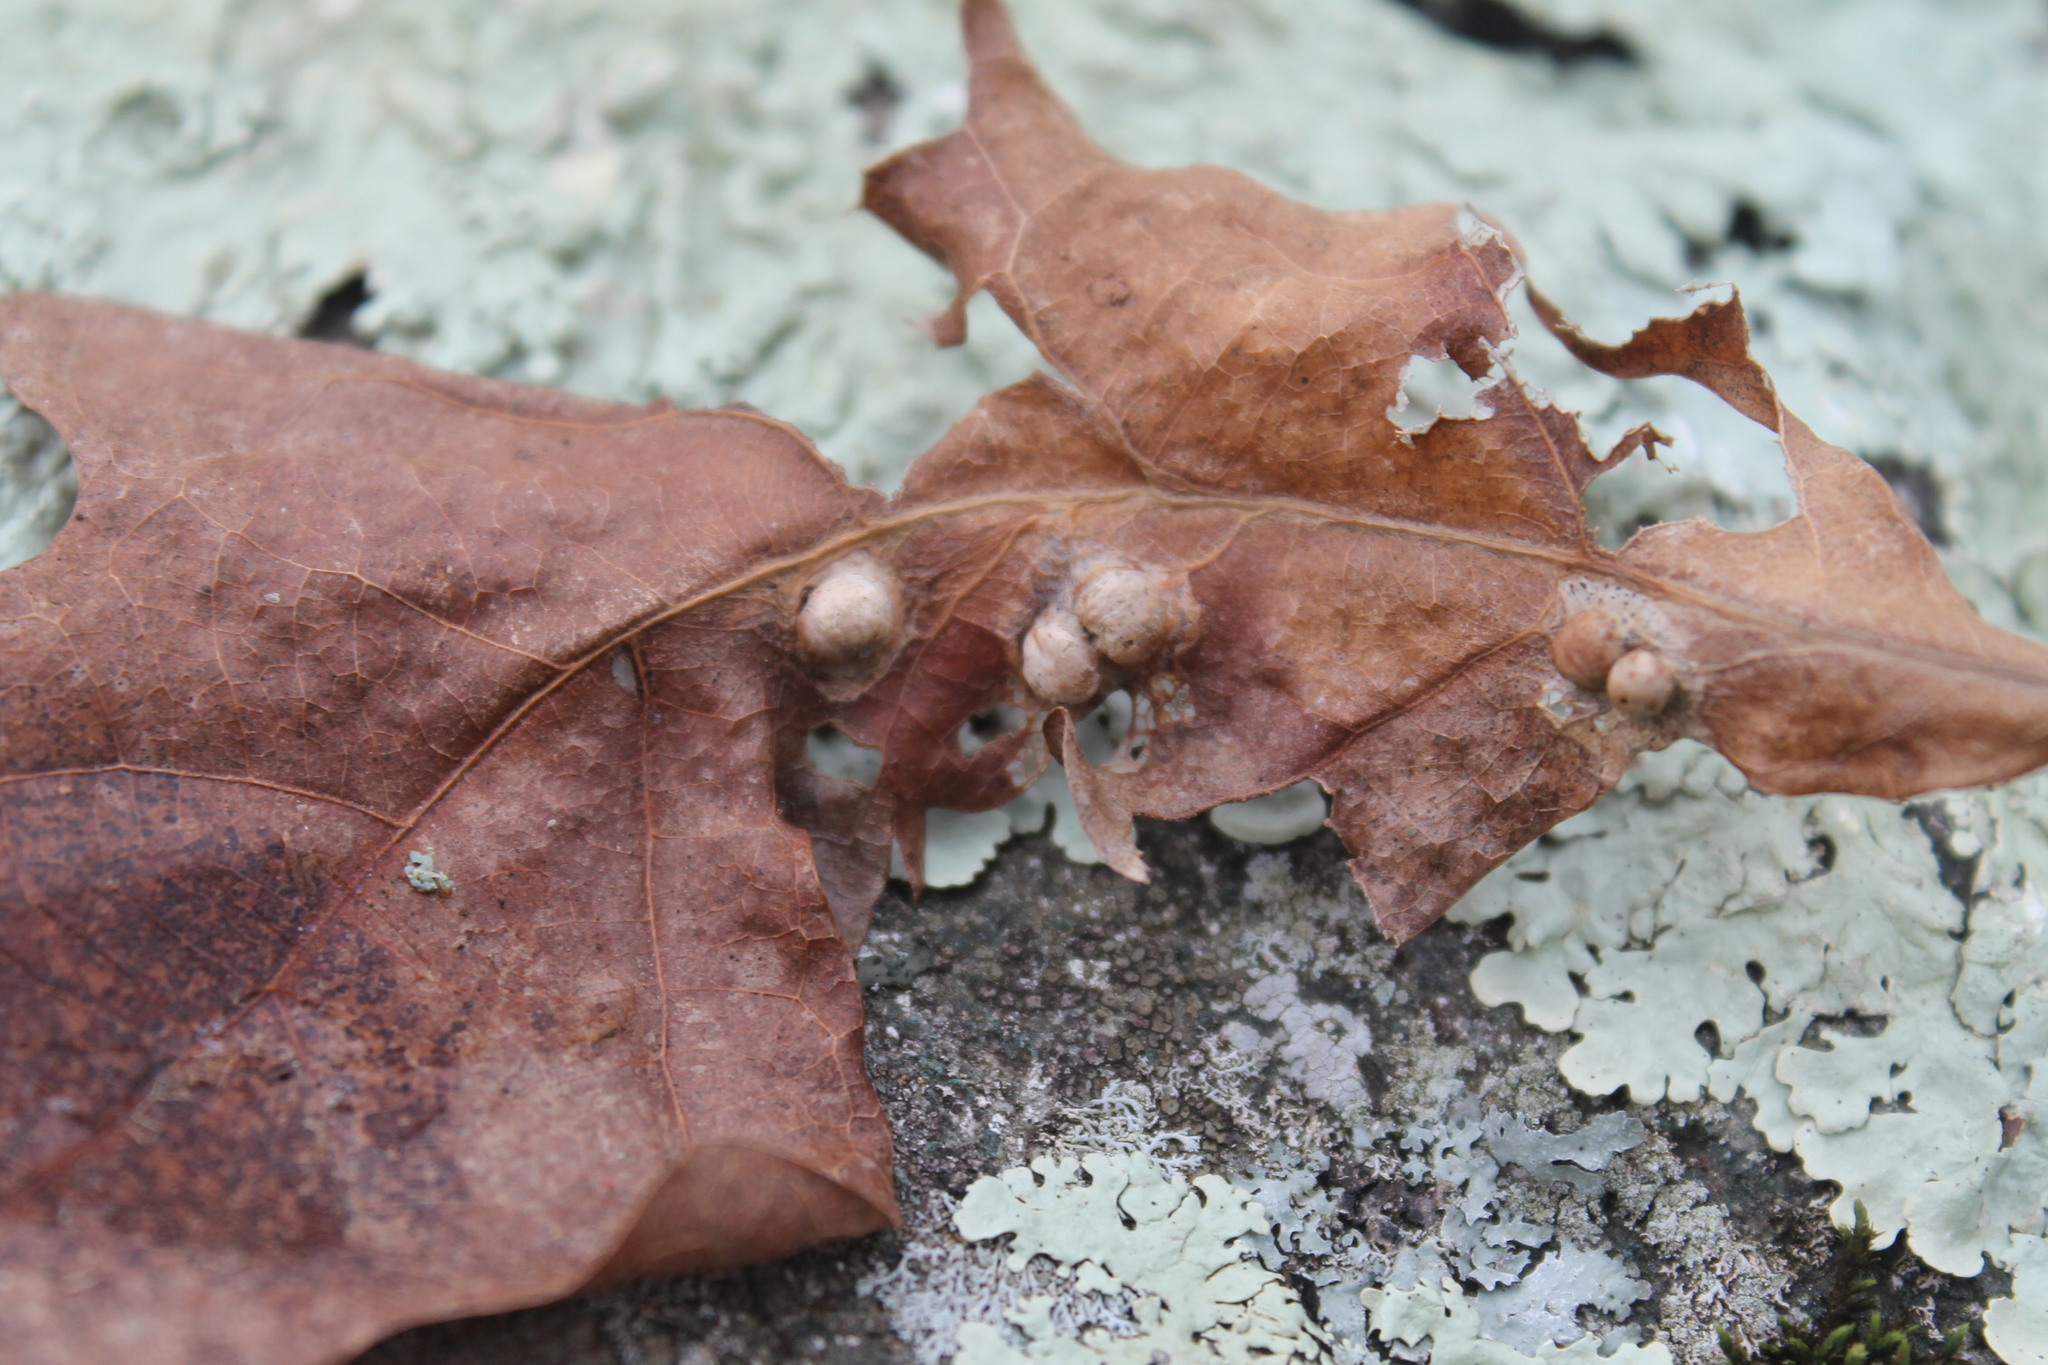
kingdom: Animalia
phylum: Arthropoda
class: Insecta
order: Hymenoptera
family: Cynipidae
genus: Callirhytis
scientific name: Callirhytis
